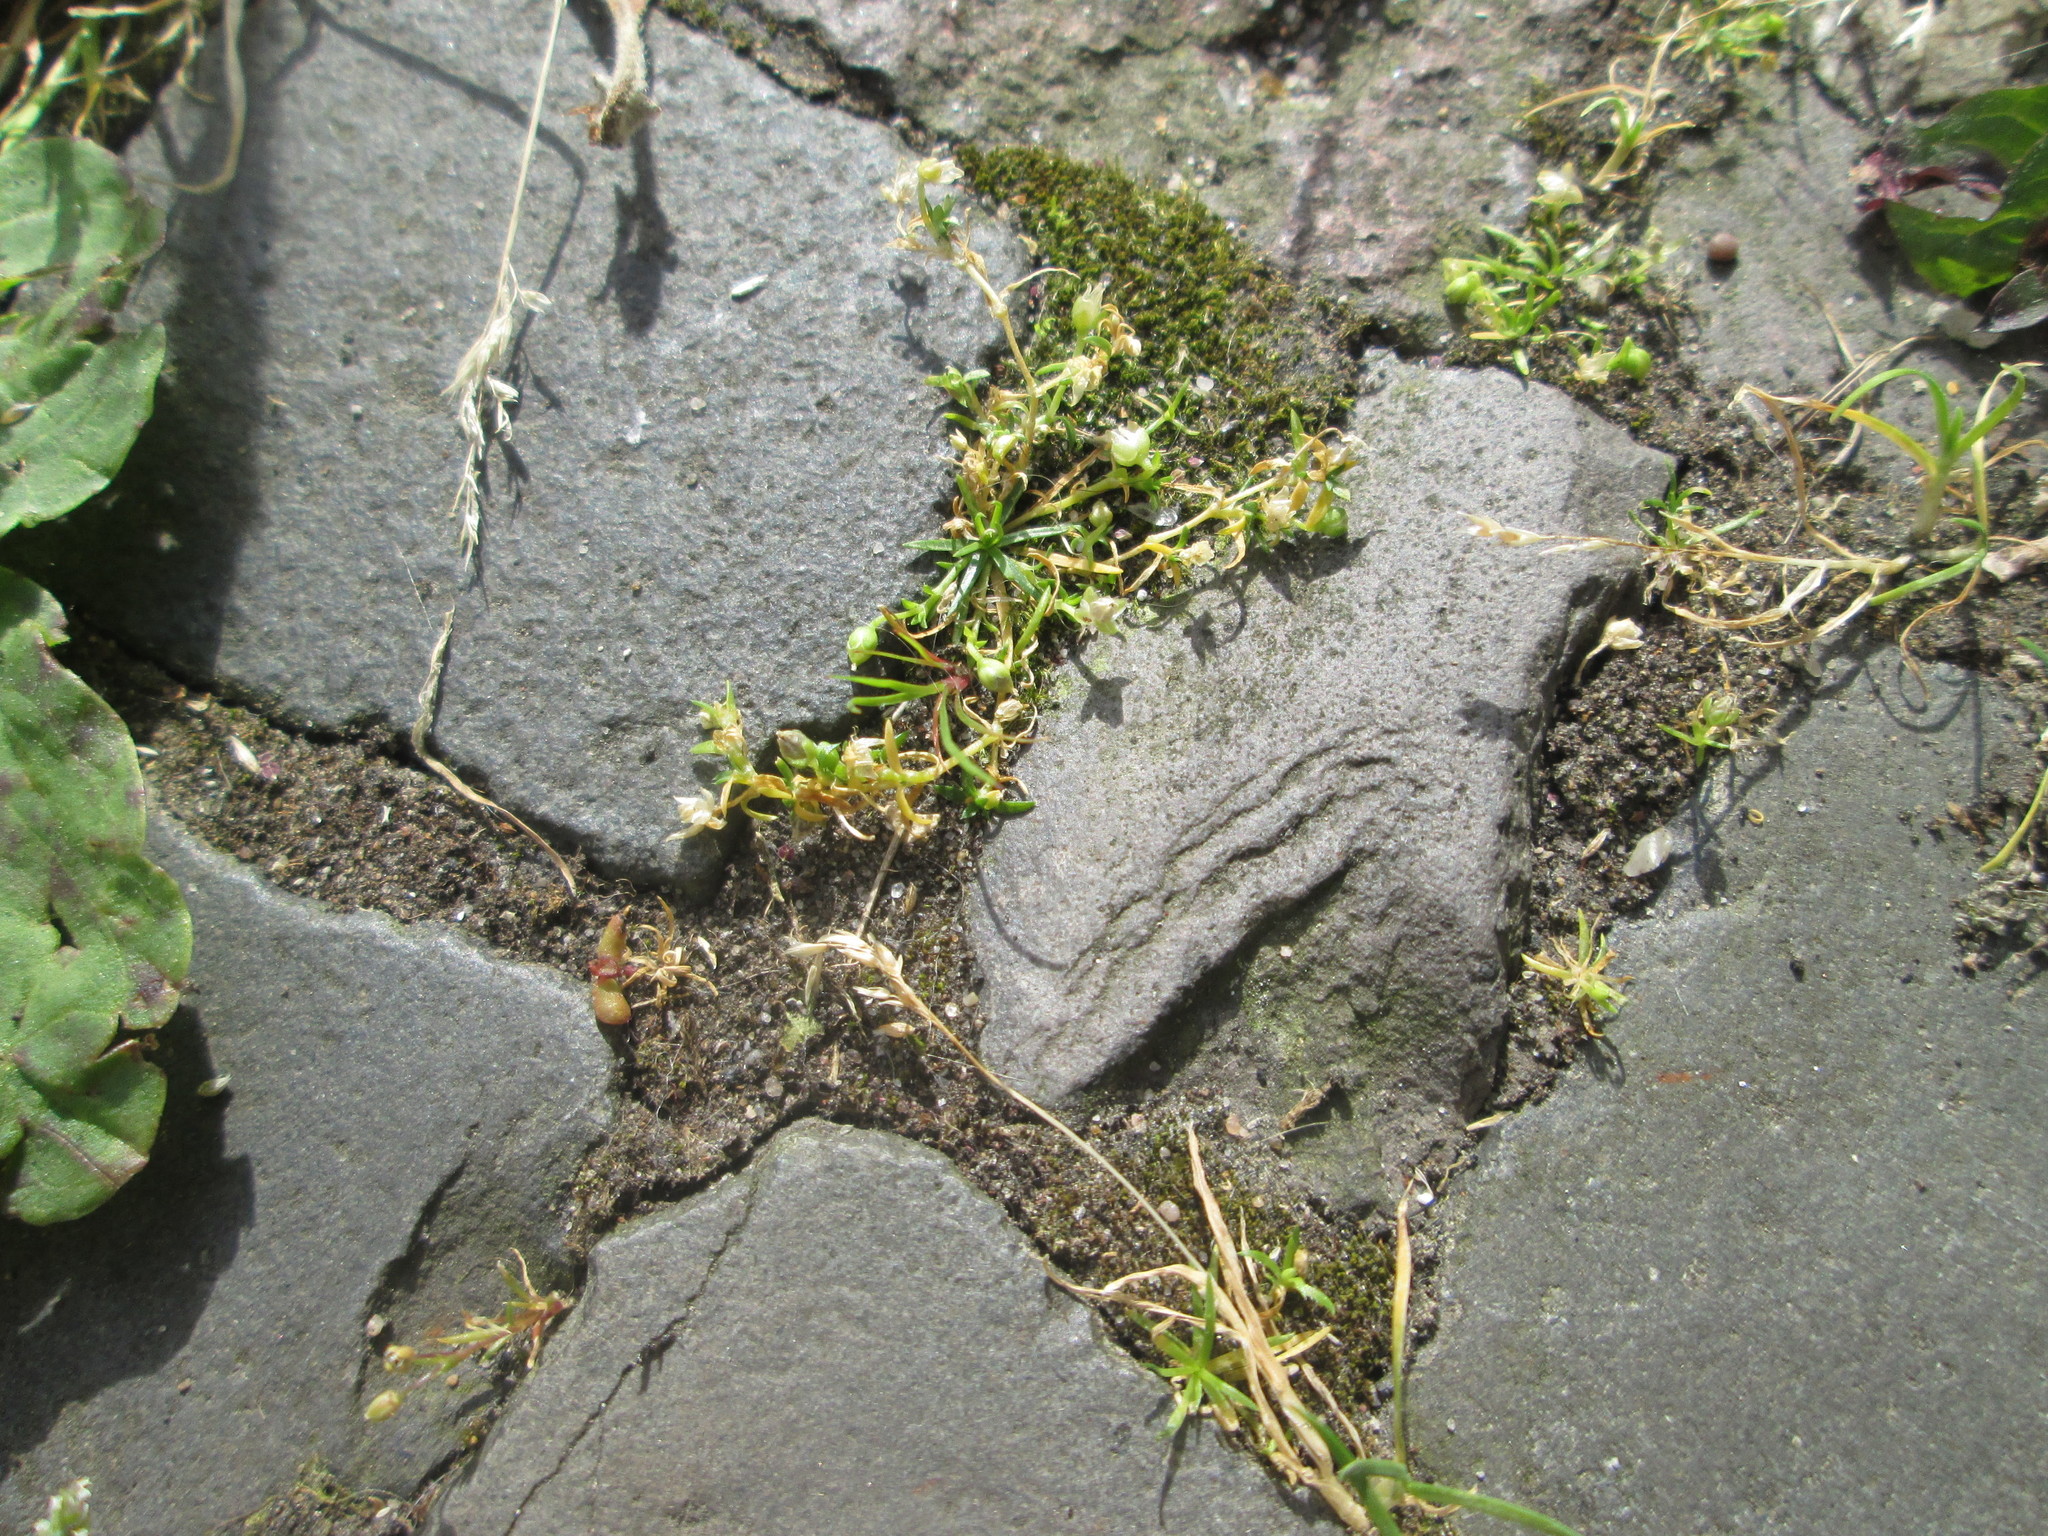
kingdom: Plantae
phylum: Tracheophyta
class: Magnoliopsida
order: Caryophyllales
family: Caryophyllaceae
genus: Sagina
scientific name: Sagina procumbens
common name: Procumbent pearlwort
